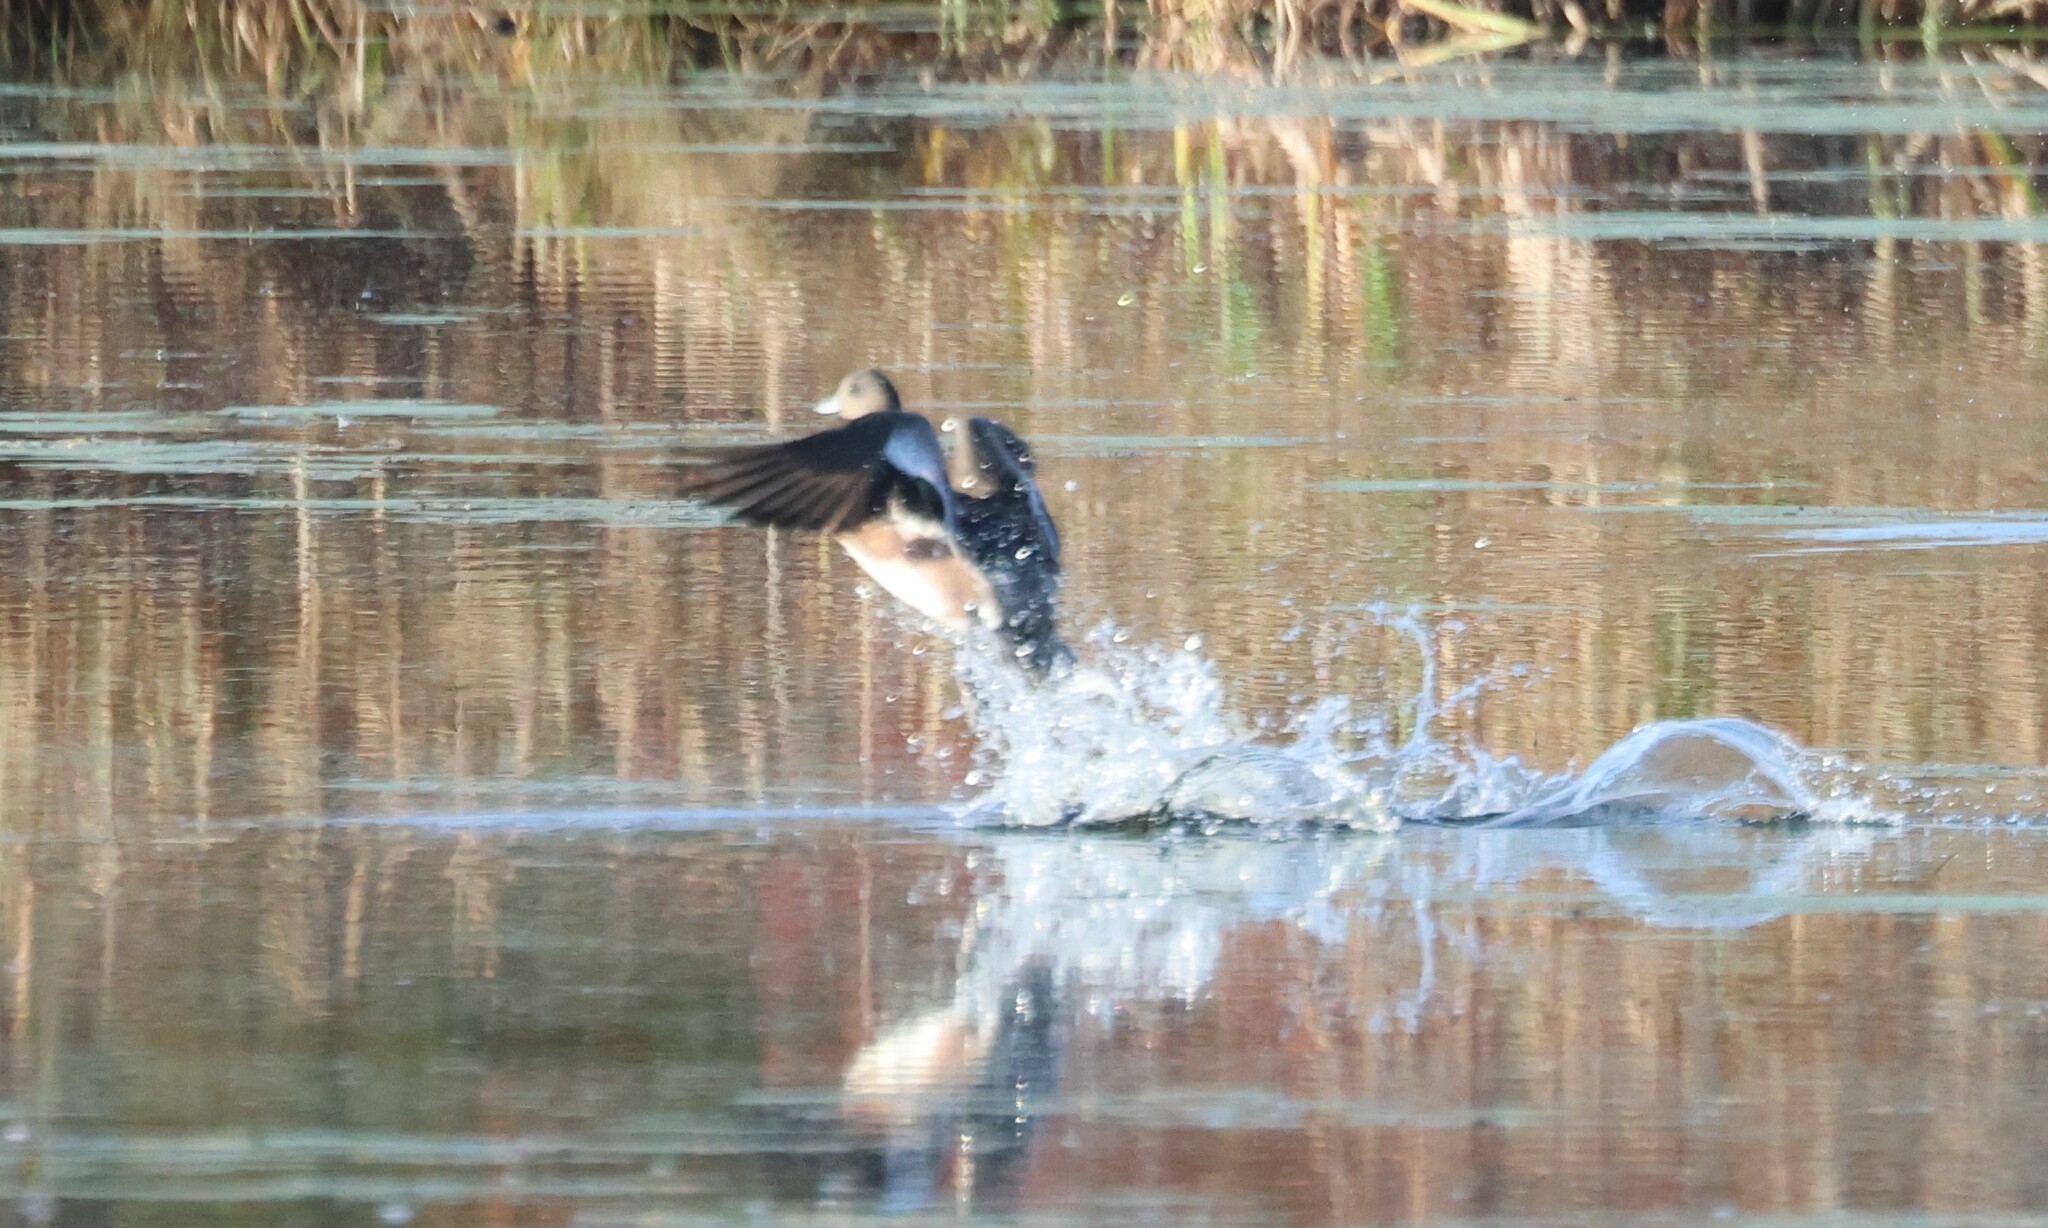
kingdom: Animalia
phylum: Chordata
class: Aves
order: Anseriformes
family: Anatidae
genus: Mareca
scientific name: Mareca americana
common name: American wigeon
